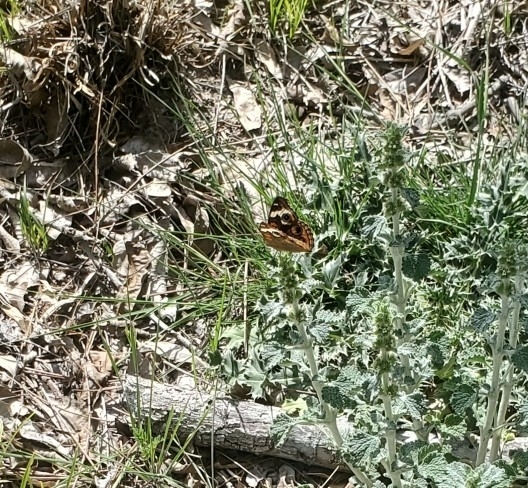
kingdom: Animalia
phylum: Arthropoda
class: Insecta
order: Lepidoptera
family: Nymphalidae
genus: Junonia
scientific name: Junonia coenia
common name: Common buckeye
